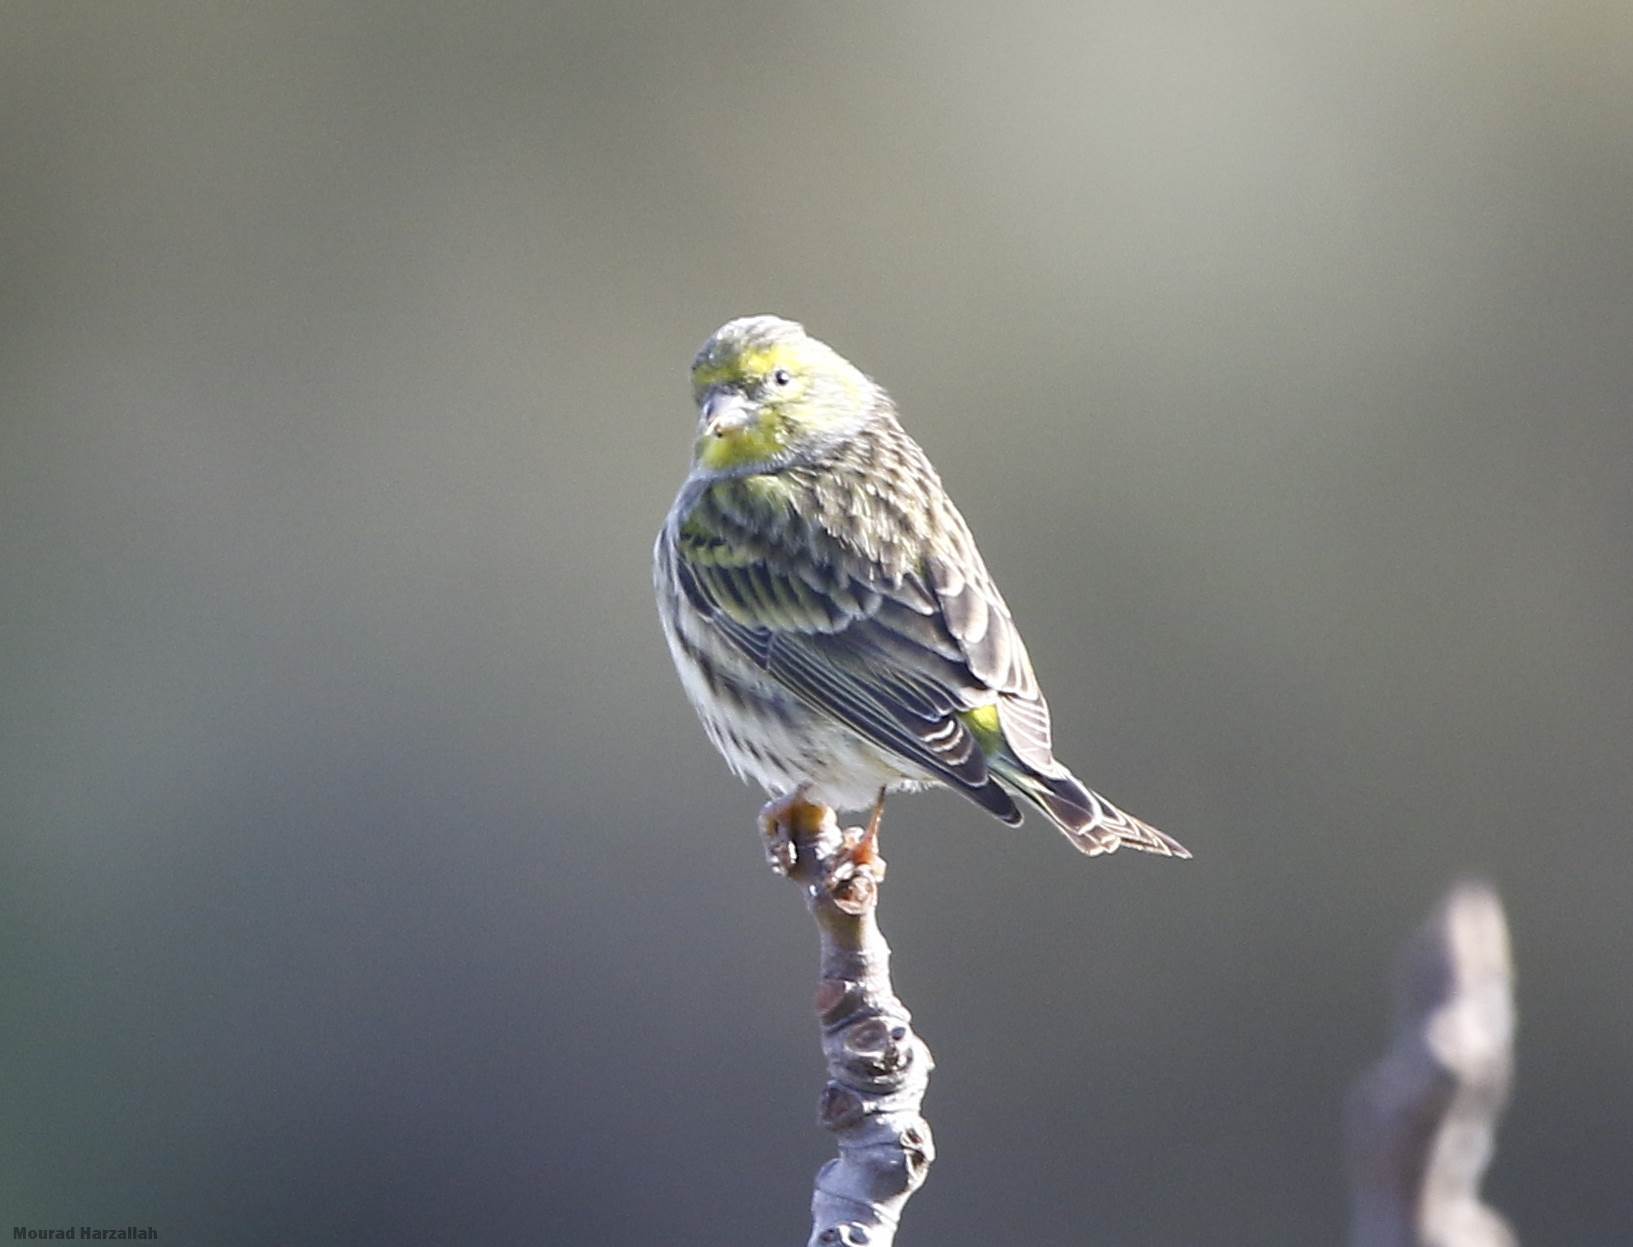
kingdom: Animalia
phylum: Chordata
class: Aves
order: Passeriformes
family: Fringillidae
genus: Serinus
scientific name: Serinus serinus
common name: European serin
